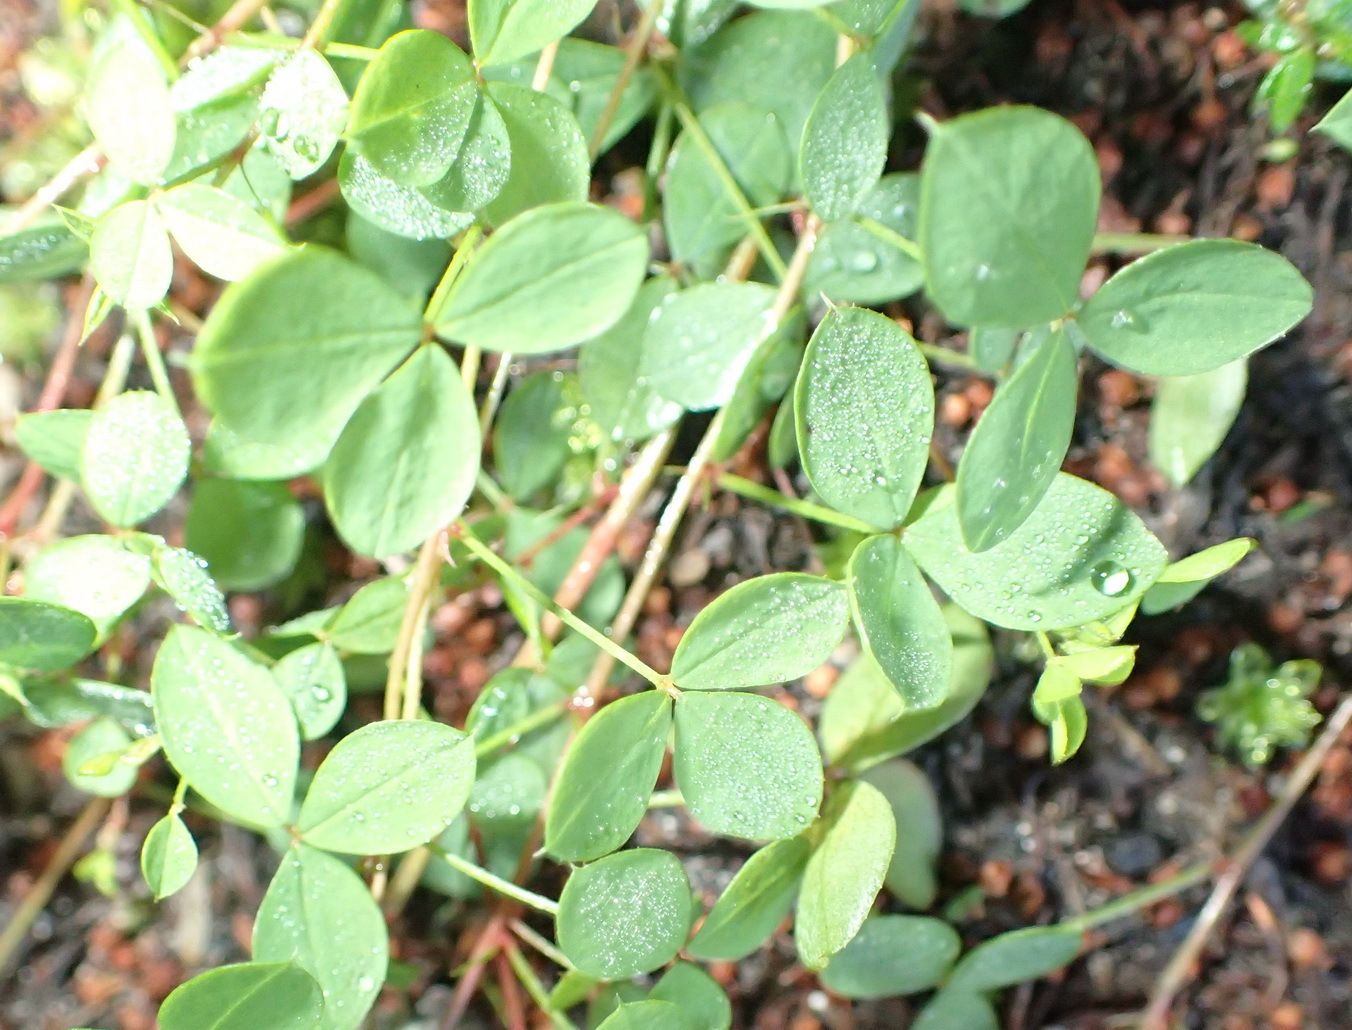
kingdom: Plantae
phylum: Tracheophyta
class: Magnoliopsida
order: Fabales
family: Fabaceae
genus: Indigofera
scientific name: Indigofera erecta
